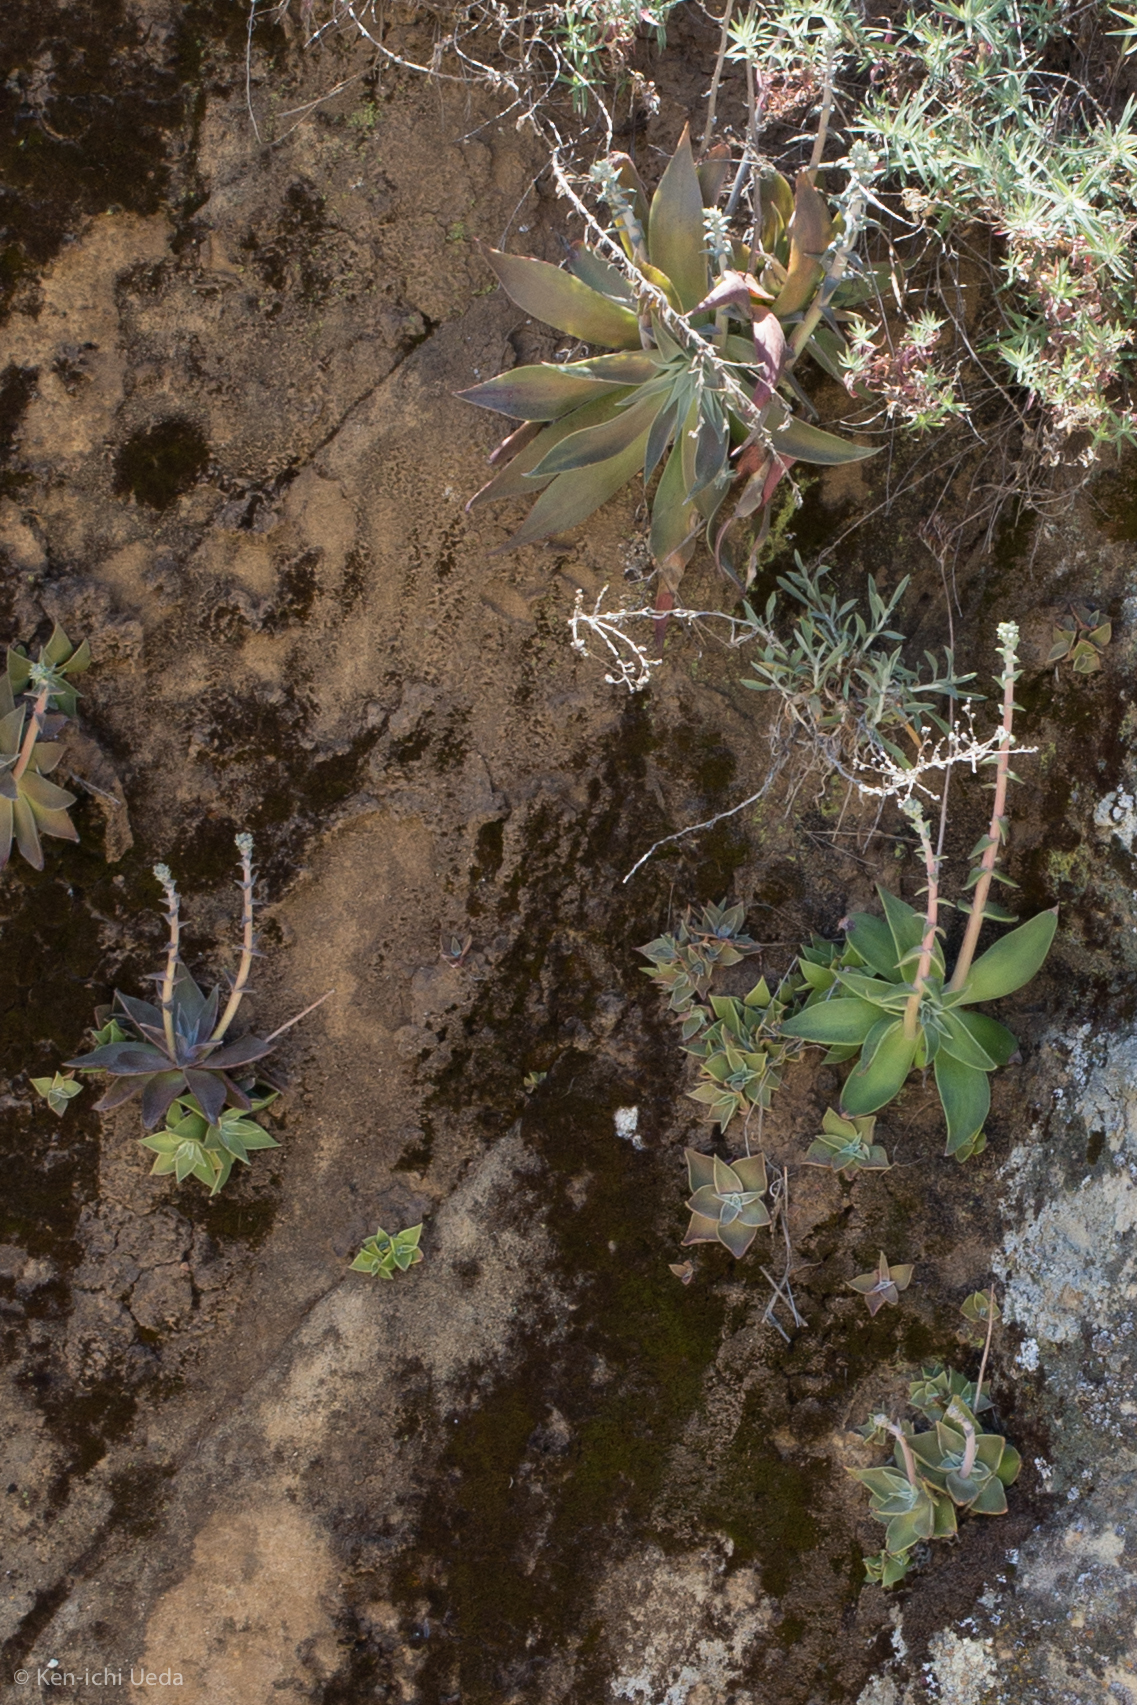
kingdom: Plantae
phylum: Tracheophyta
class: Magnoliopsida
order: Saxifragales
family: Crassulaceae
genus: Dudleya
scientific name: Dudleya lanceolata
